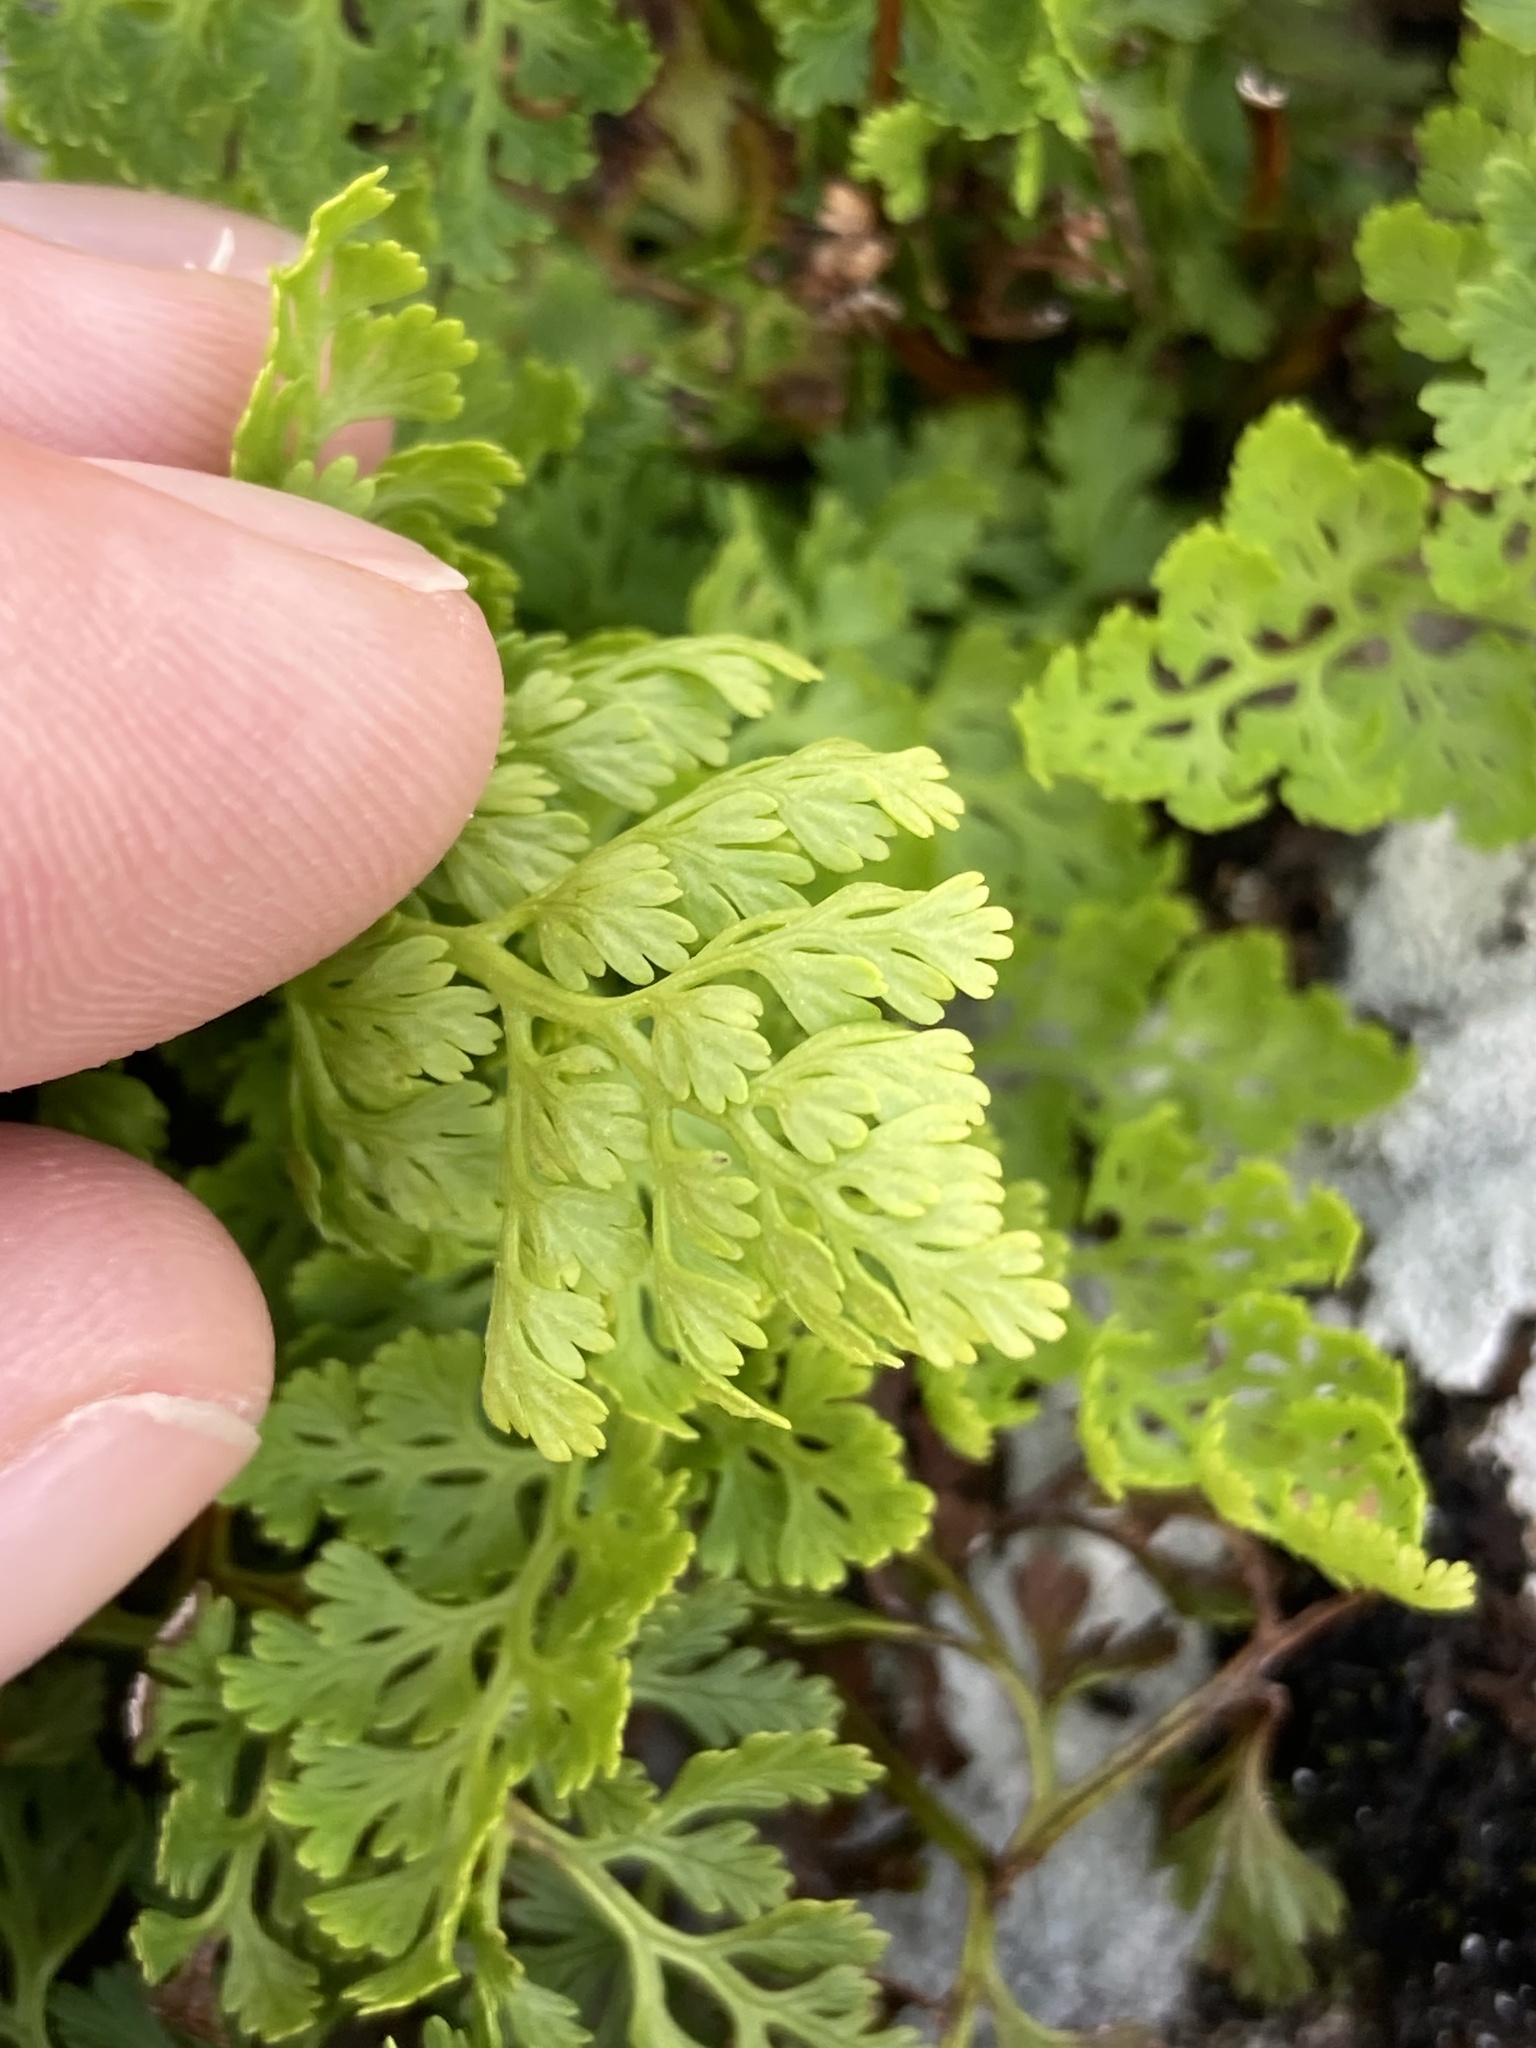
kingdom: Plantae
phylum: Tracheophyta
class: Polypodiopsida
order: Polypodiales
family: Pteridaceae
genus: Cryptogramma
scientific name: Cryptogramma crispa
